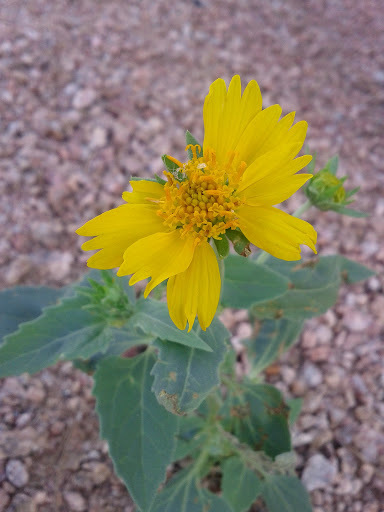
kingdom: Plantae
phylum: Tracheophyta
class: Magnoliopsida
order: Asterales
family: Asteraceae
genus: Verbesina
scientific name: Verbesina encelioides
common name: Golden crownbeard
